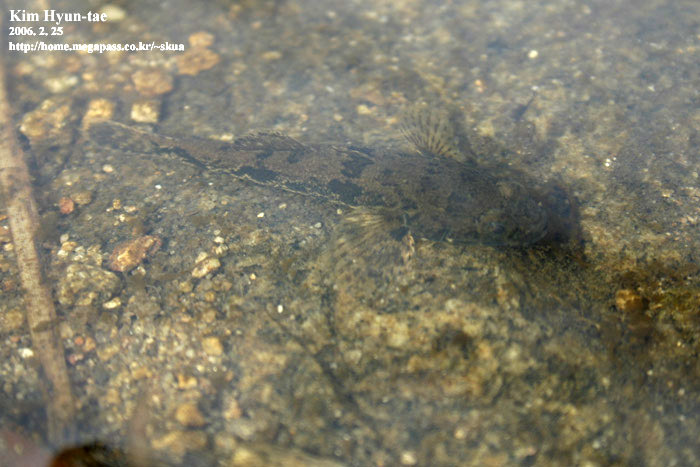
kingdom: Animalia
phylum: Chordata
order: Perciformes
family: Odontobutidae
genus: Odontobutis
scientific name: Odontobutis interrupta
